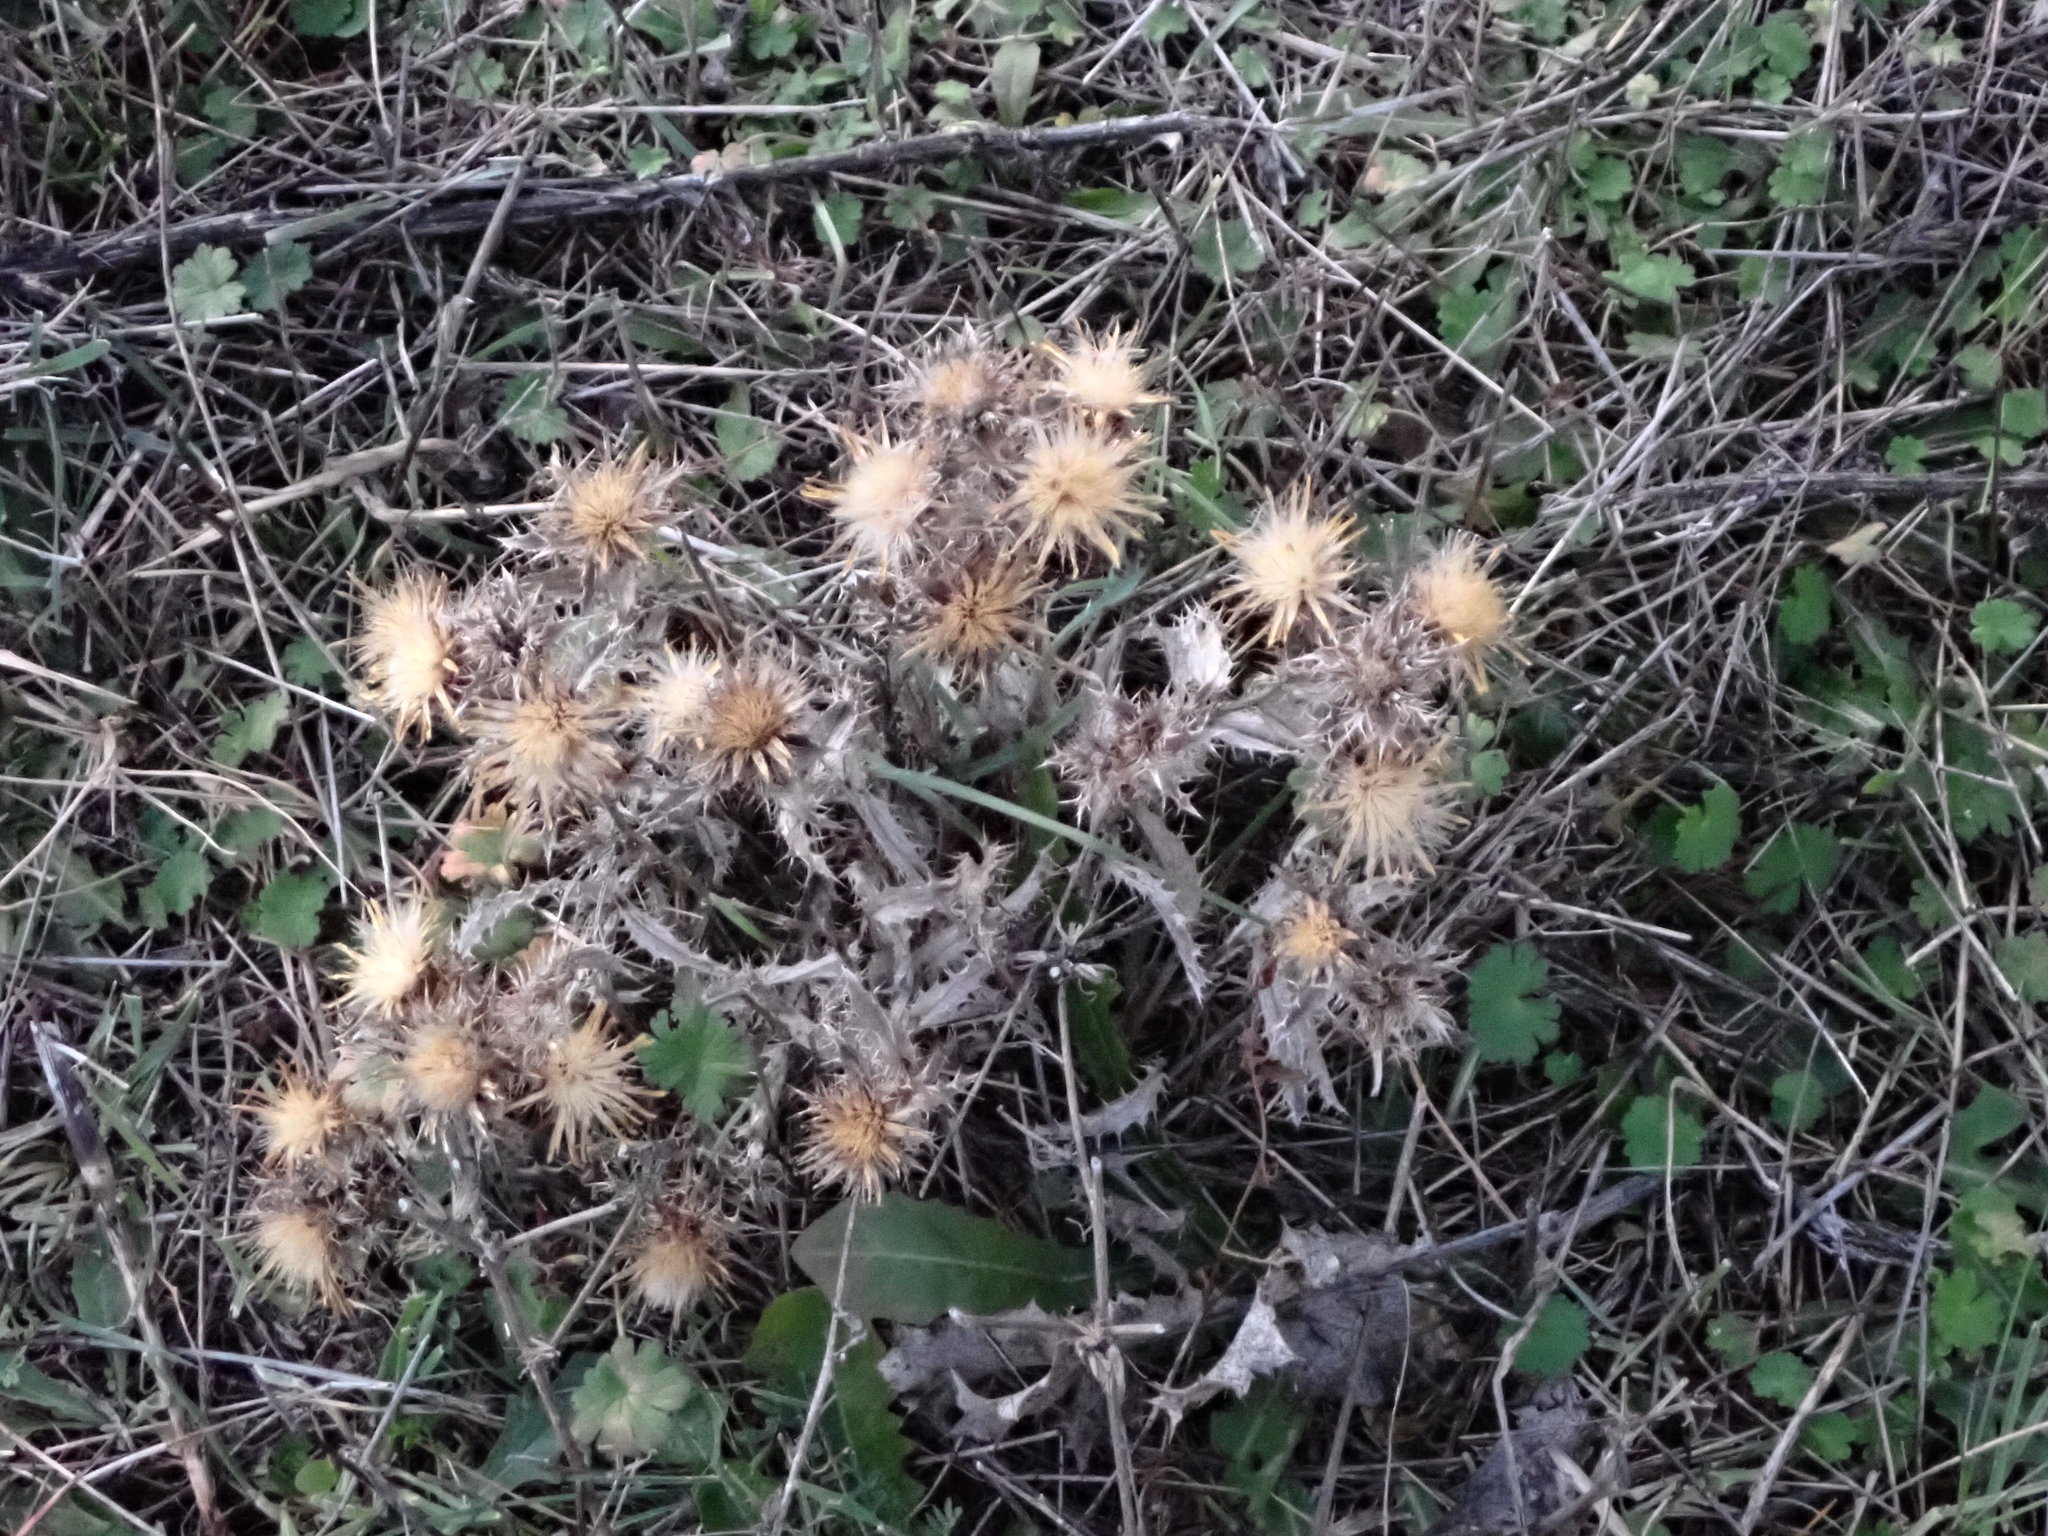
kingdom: Plantae
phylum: Tracheophyta
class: Magnoliopsida
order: Asterales
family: Asteraceae
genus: Carlina
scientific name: Carlina hispanica
